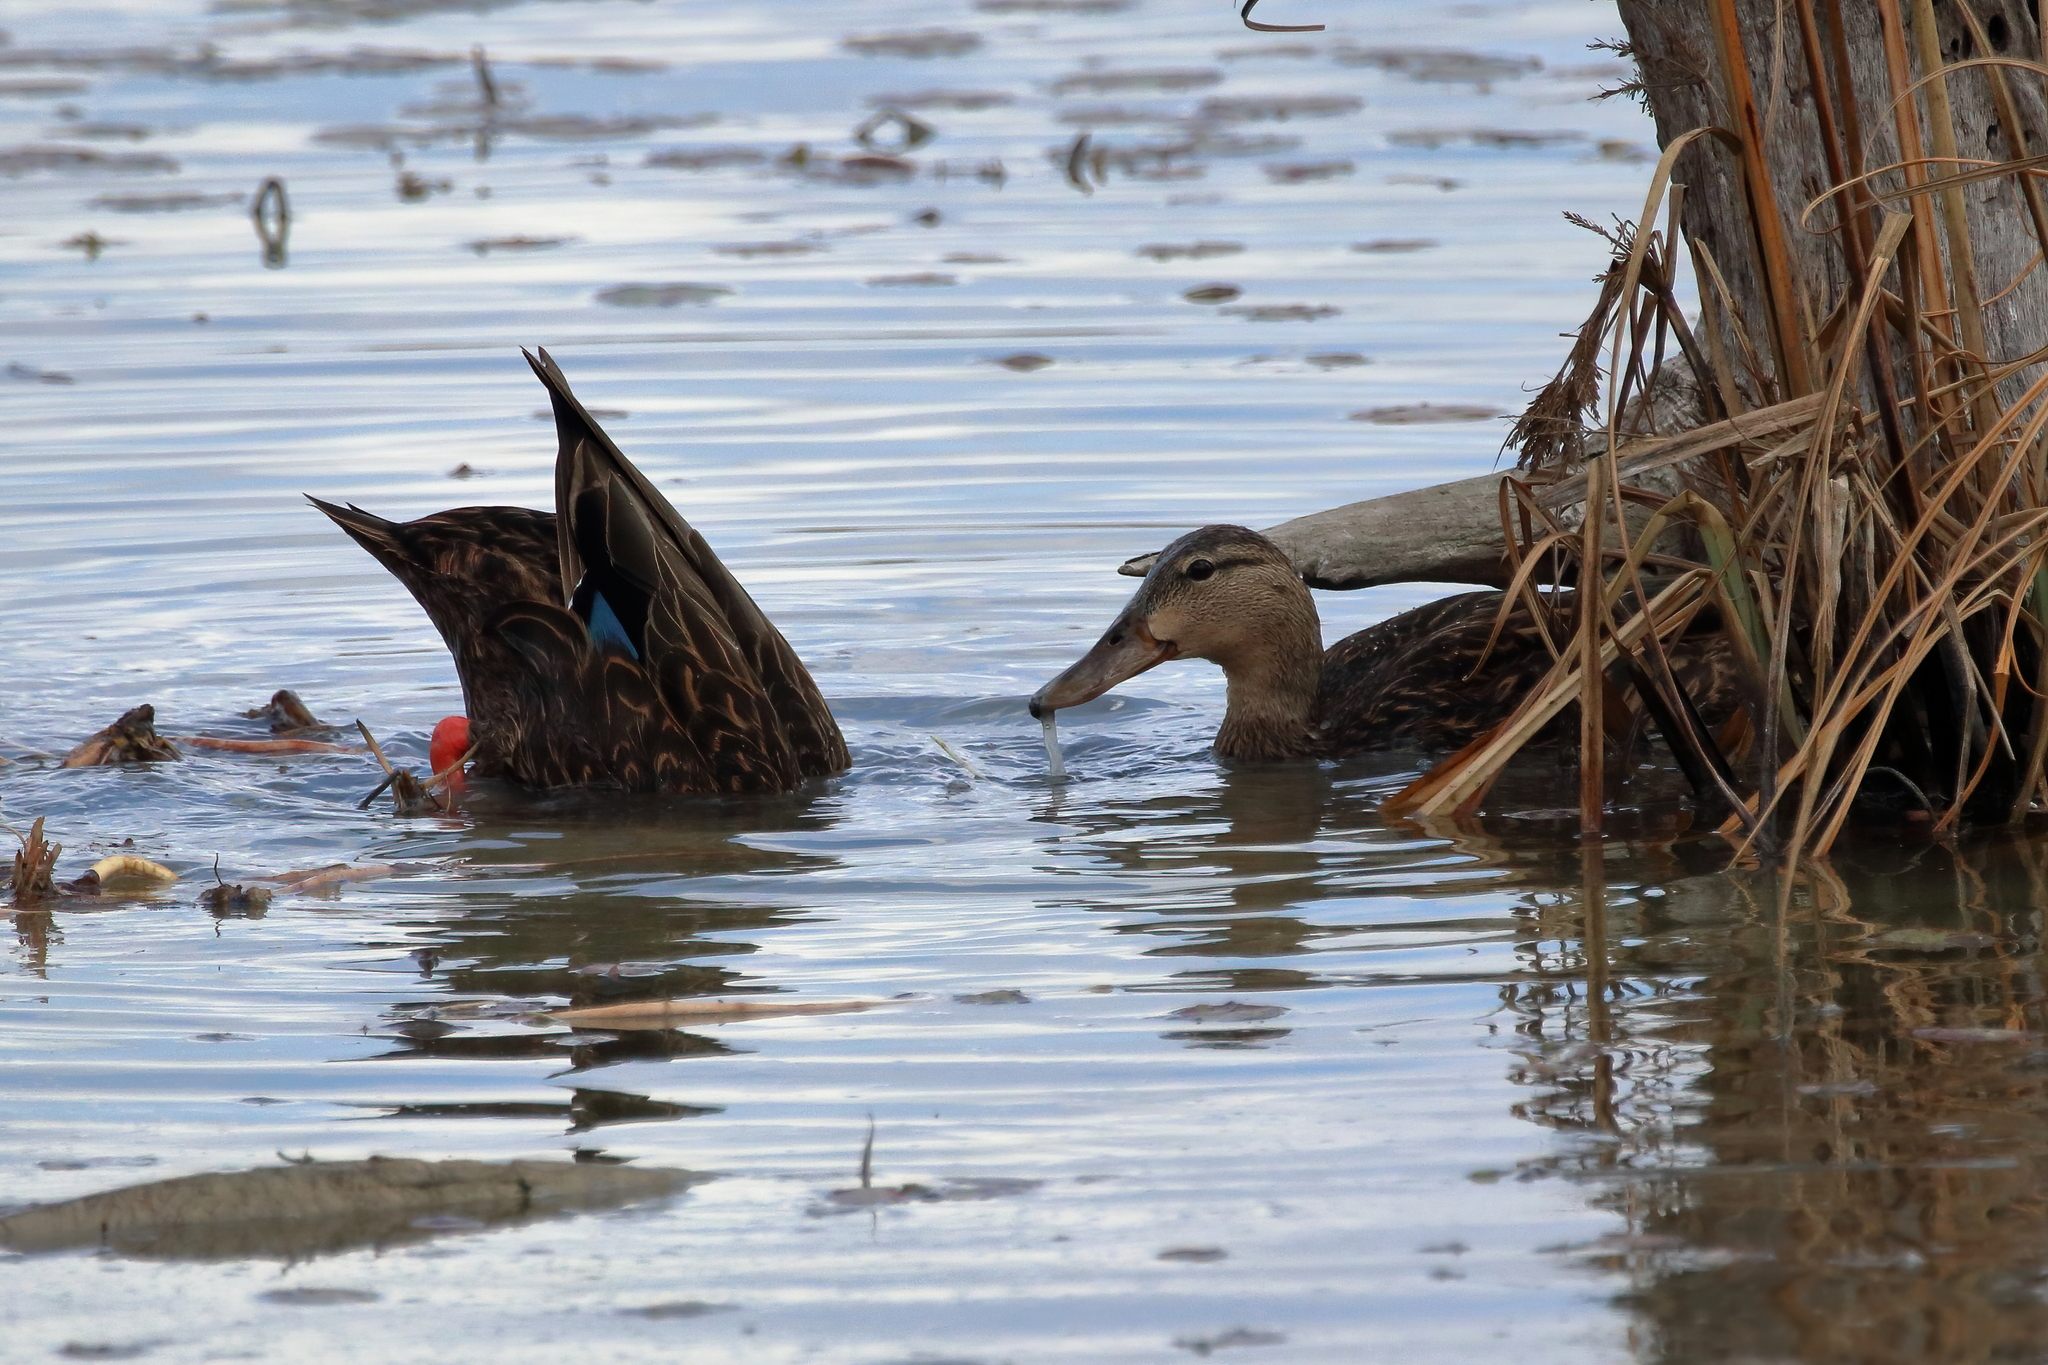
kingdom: Animalia
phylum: Chordata
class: Aves
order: Anseriformes
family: Anatidae
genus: Anas
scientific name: Anas diazi
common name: Mexican duck
